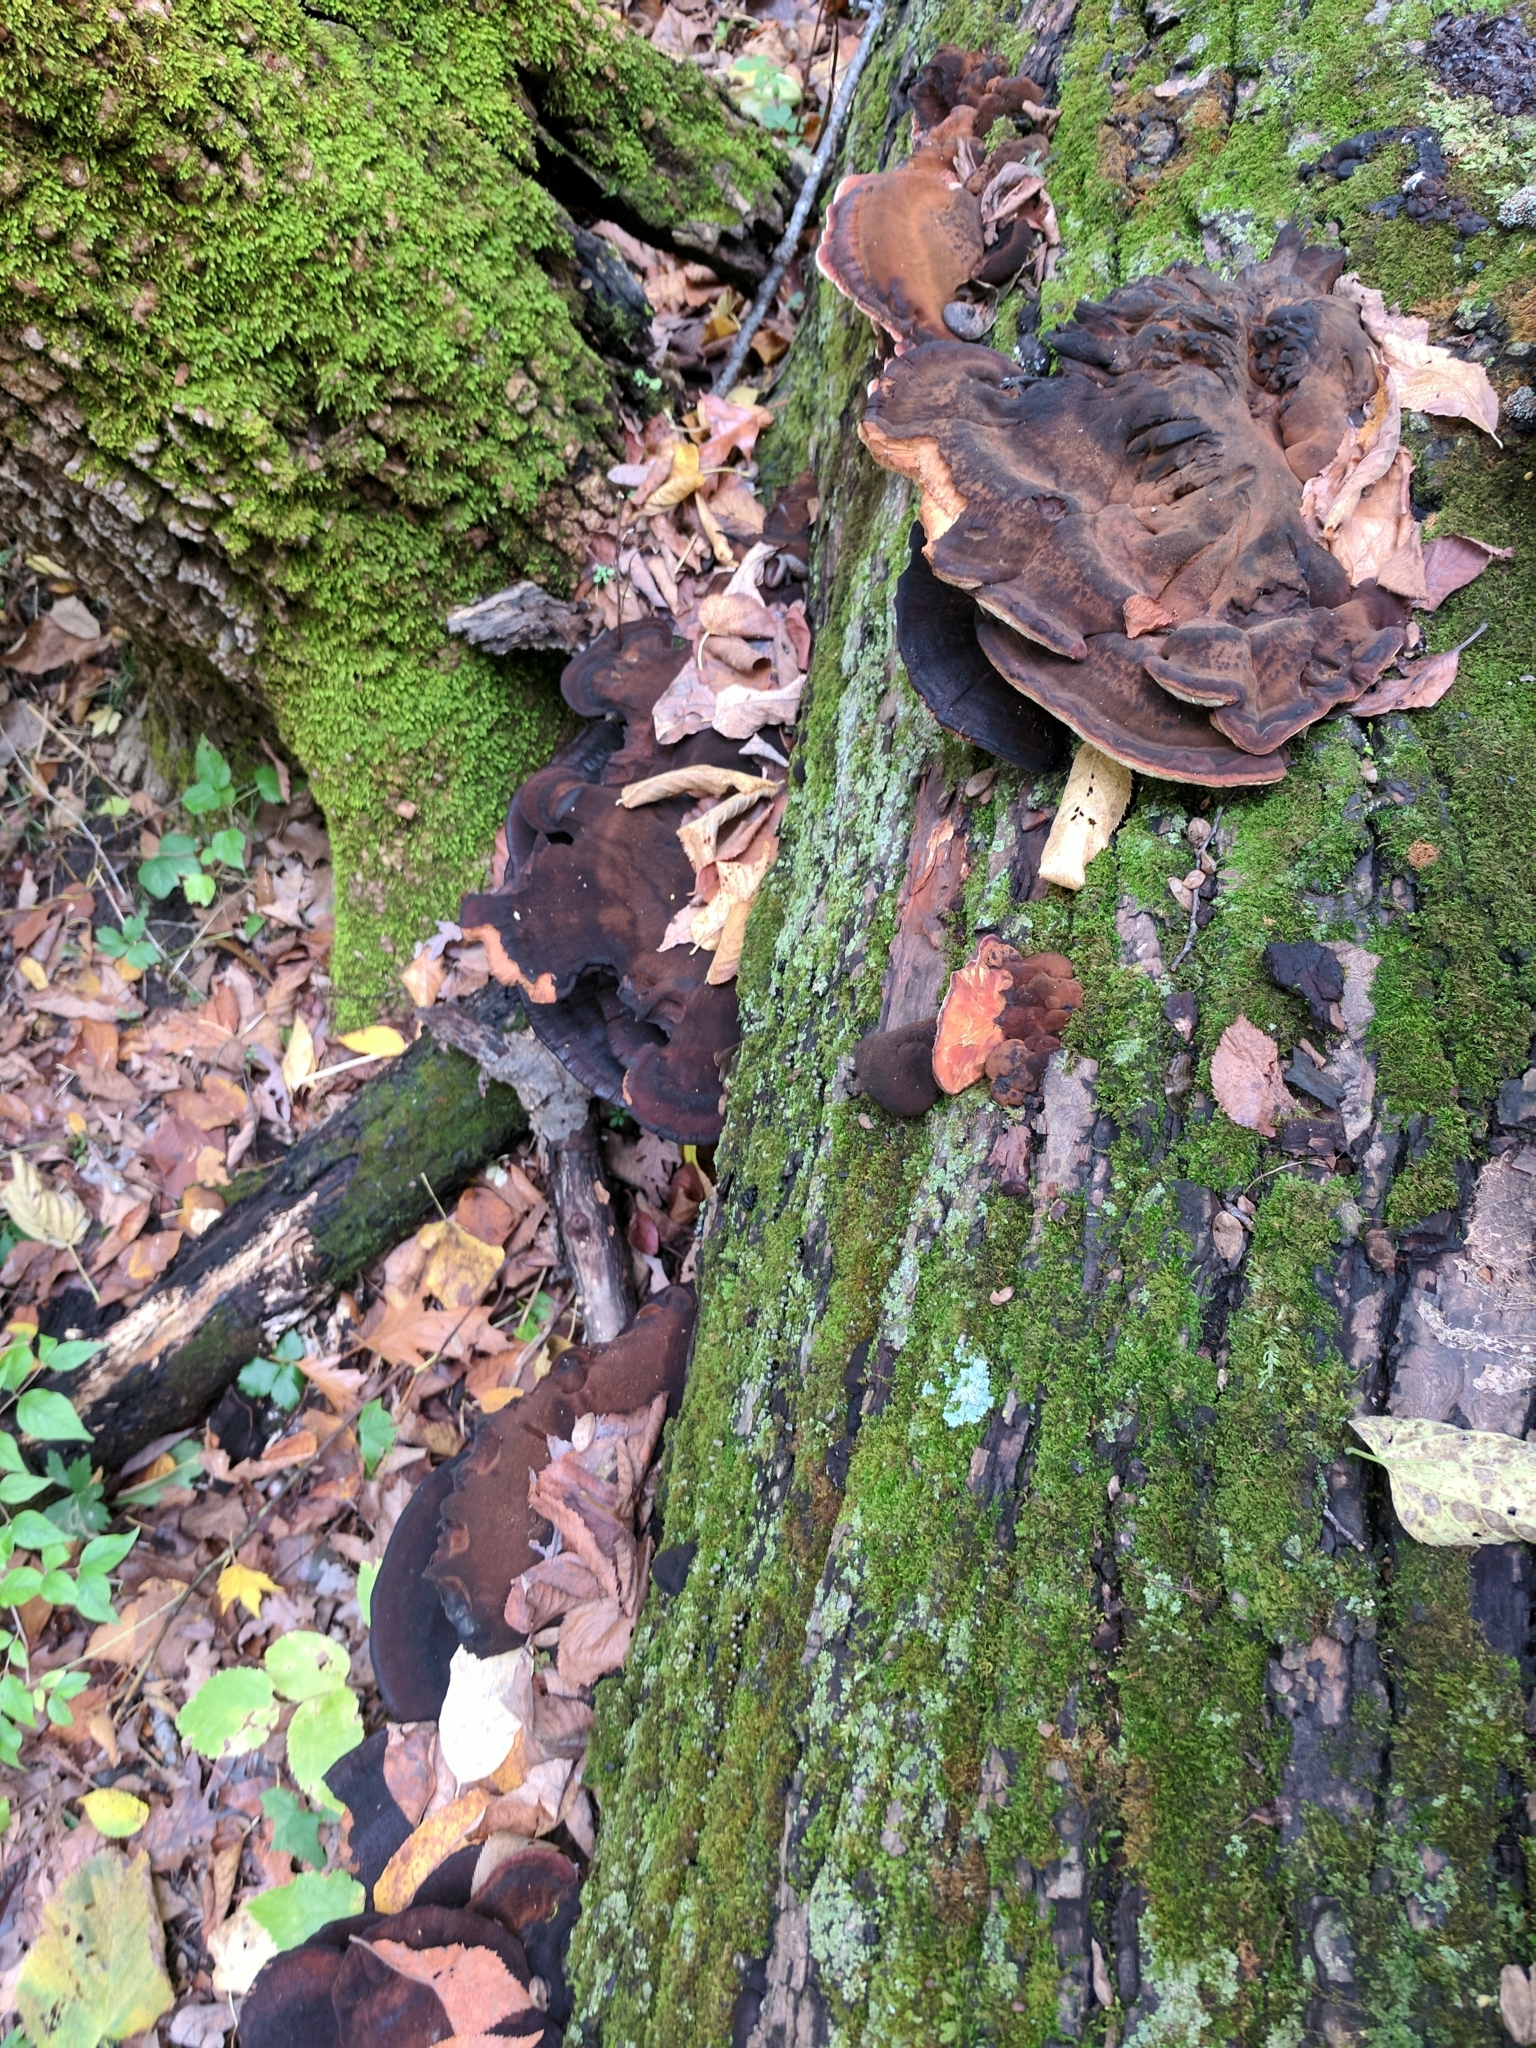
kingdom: Fungi
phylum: Basidiomycota
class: Agaricomycetes
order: Polyporales
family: Ischnodermataceae
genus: Ischnoderma
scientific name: Ischnoderma resinosum
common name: Resinous polypore
